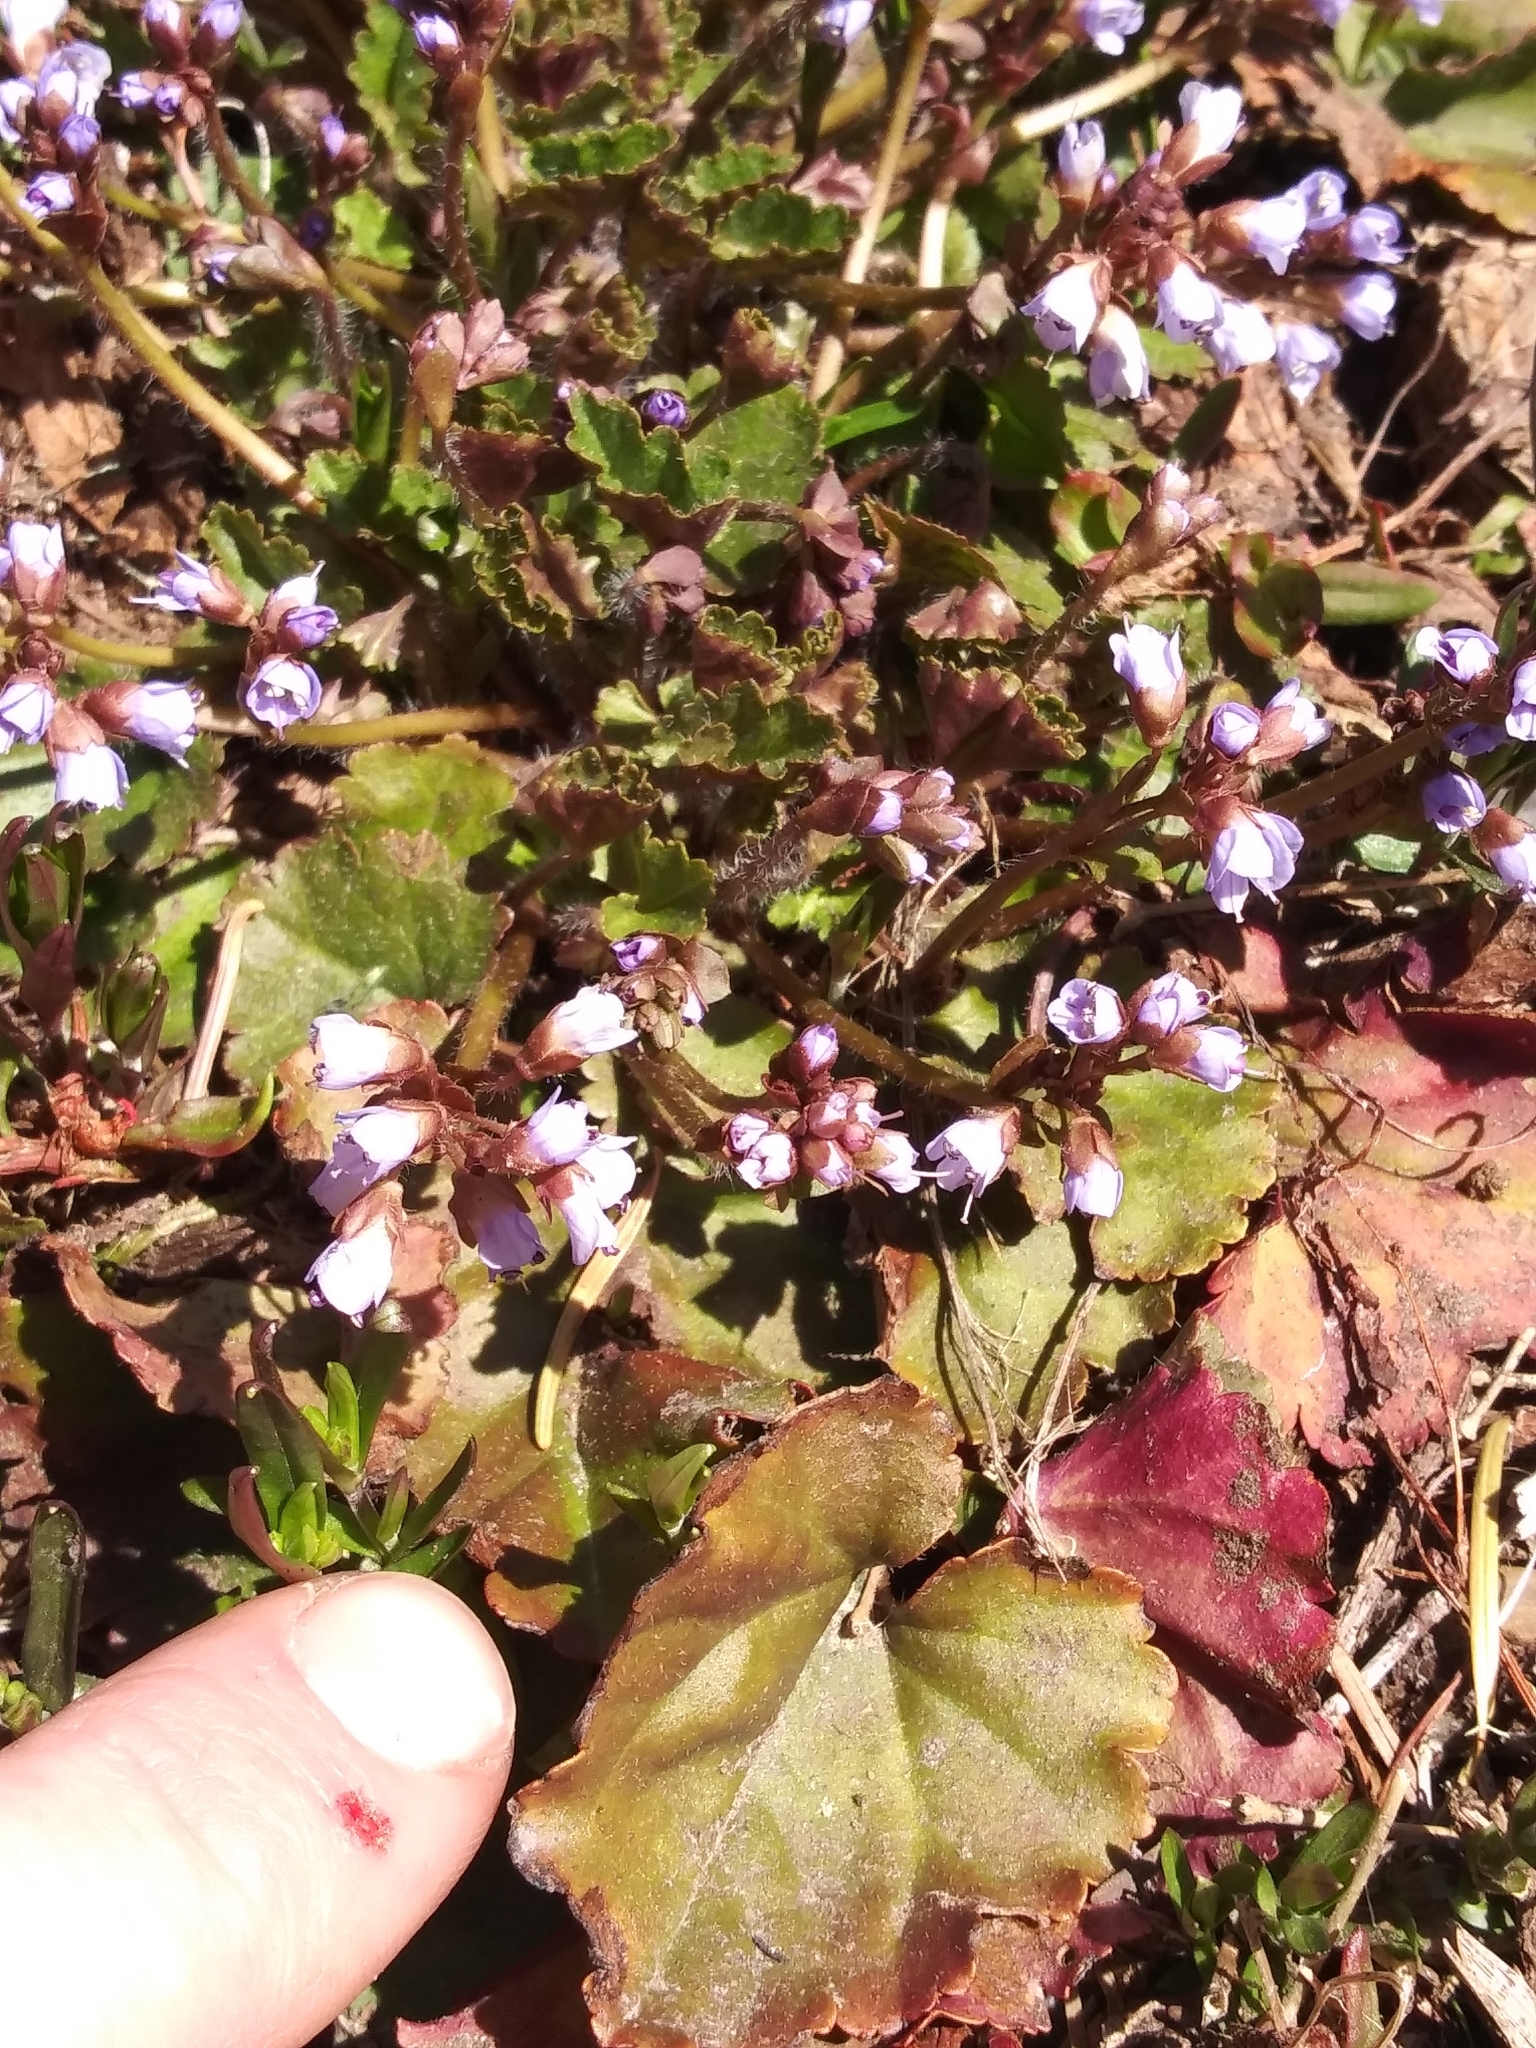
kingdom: Plantae
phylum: Tracheophyta
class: Magnoliopsida
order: Lamiales
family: Plantaginaceae
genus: Synthyris
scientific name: Synthyris reniformis
